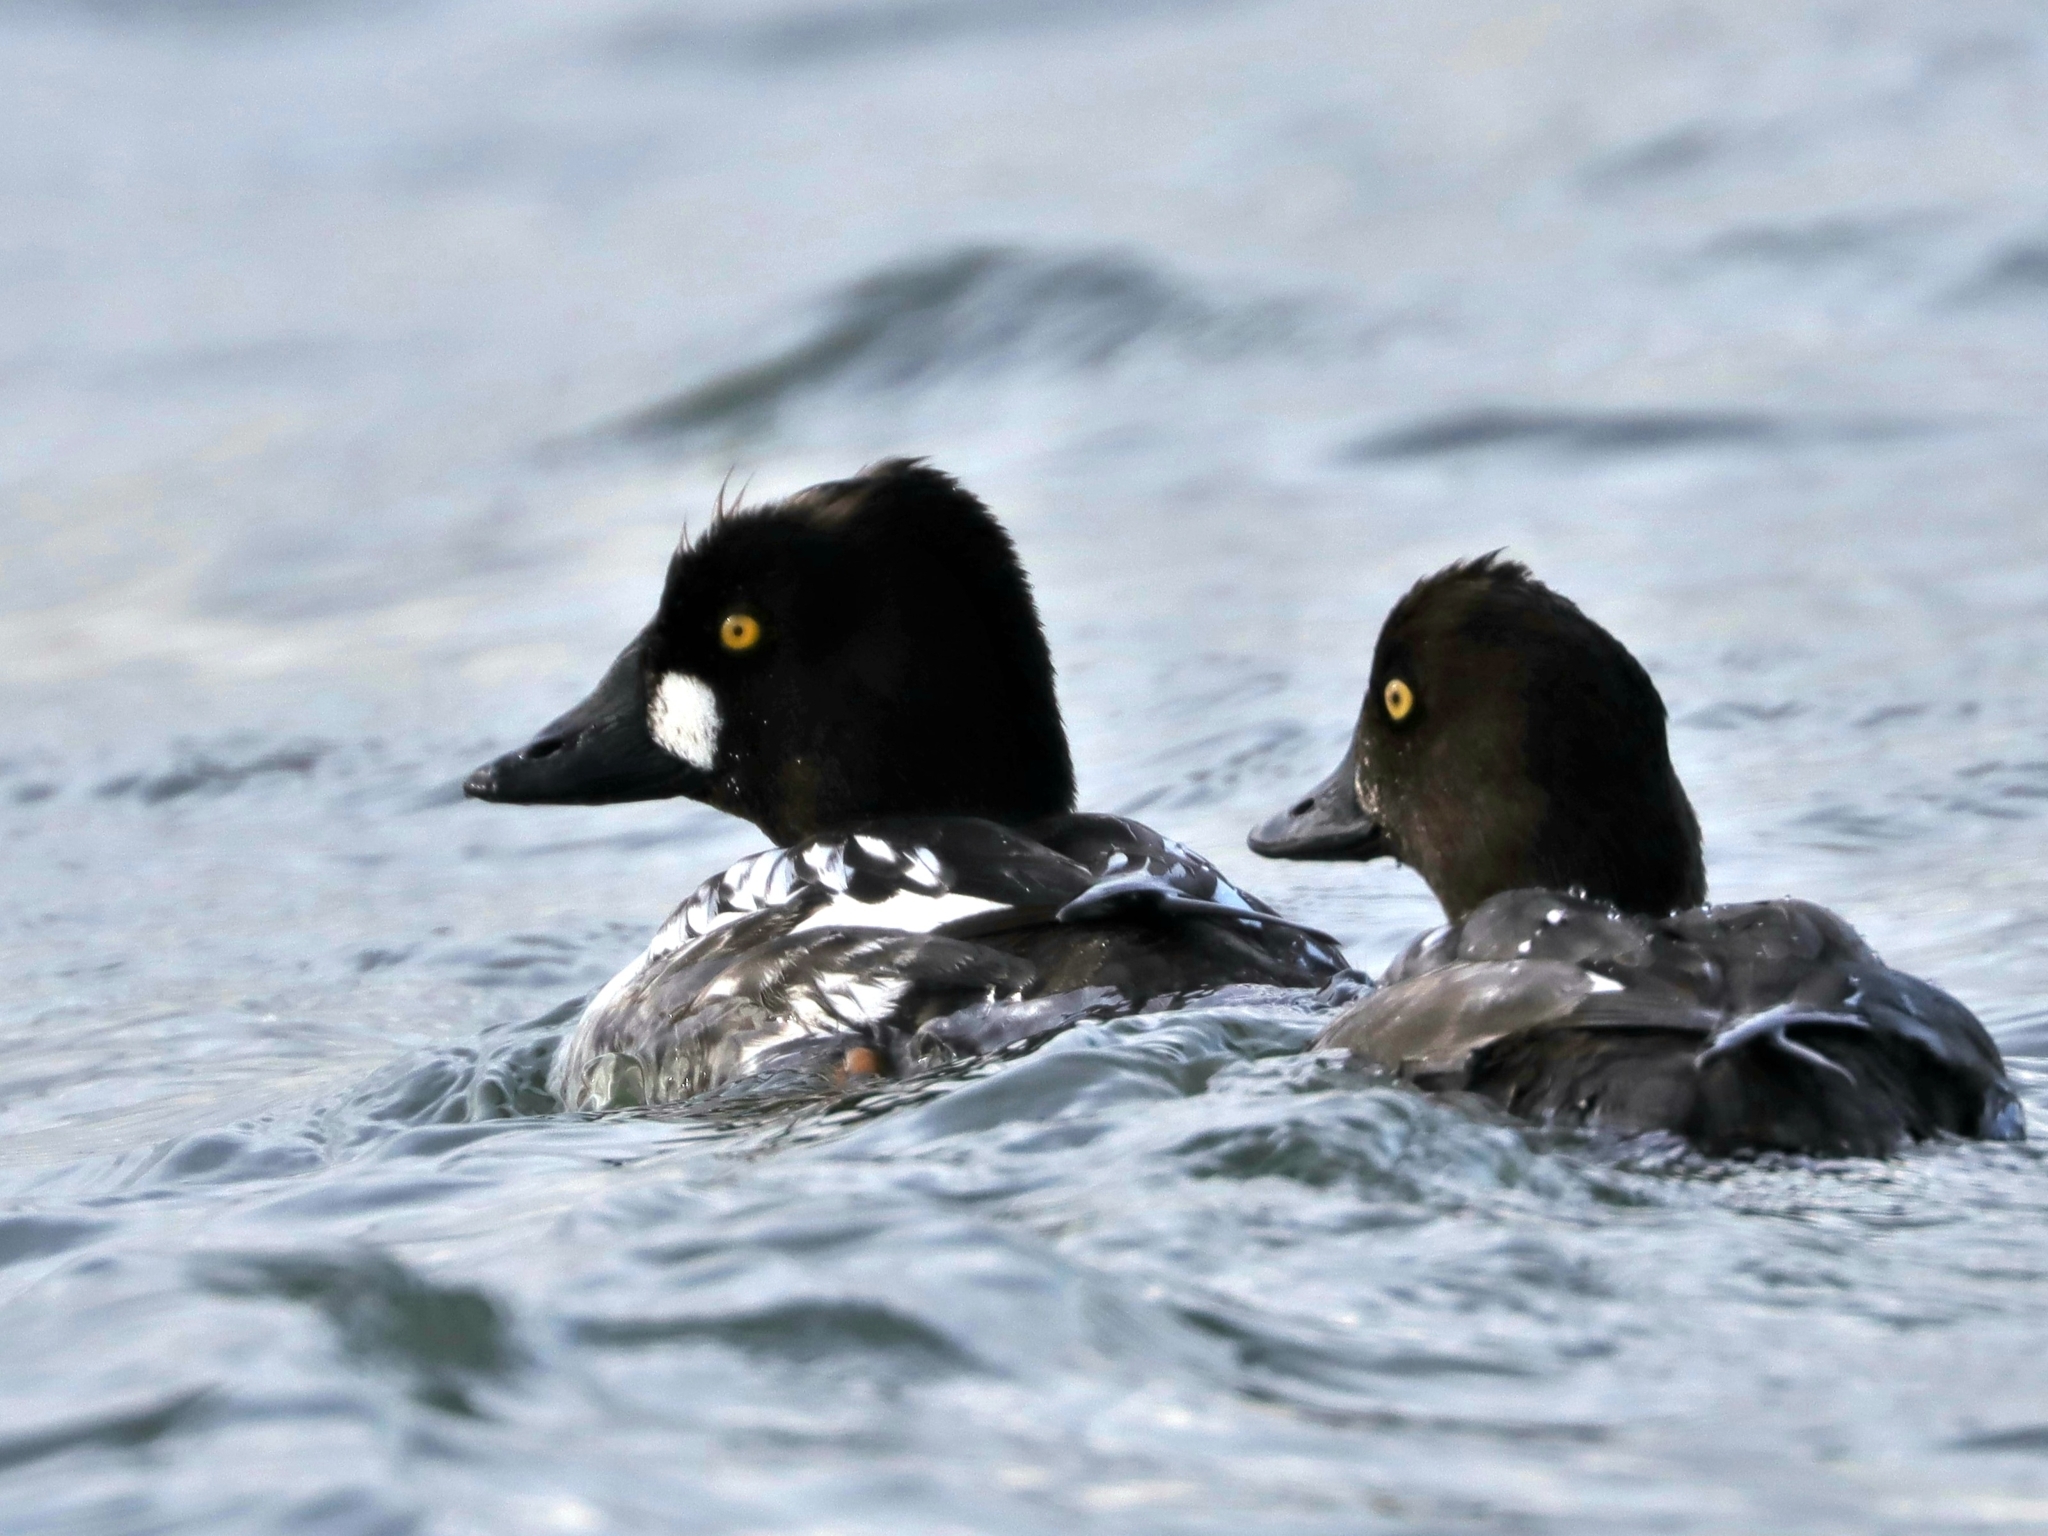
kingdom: Animalia
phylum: Chordata
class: Aves
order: Anseriformes
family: Anatidae
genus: Bucephala
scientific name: Bucephala clangula
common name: Common goldeneye
